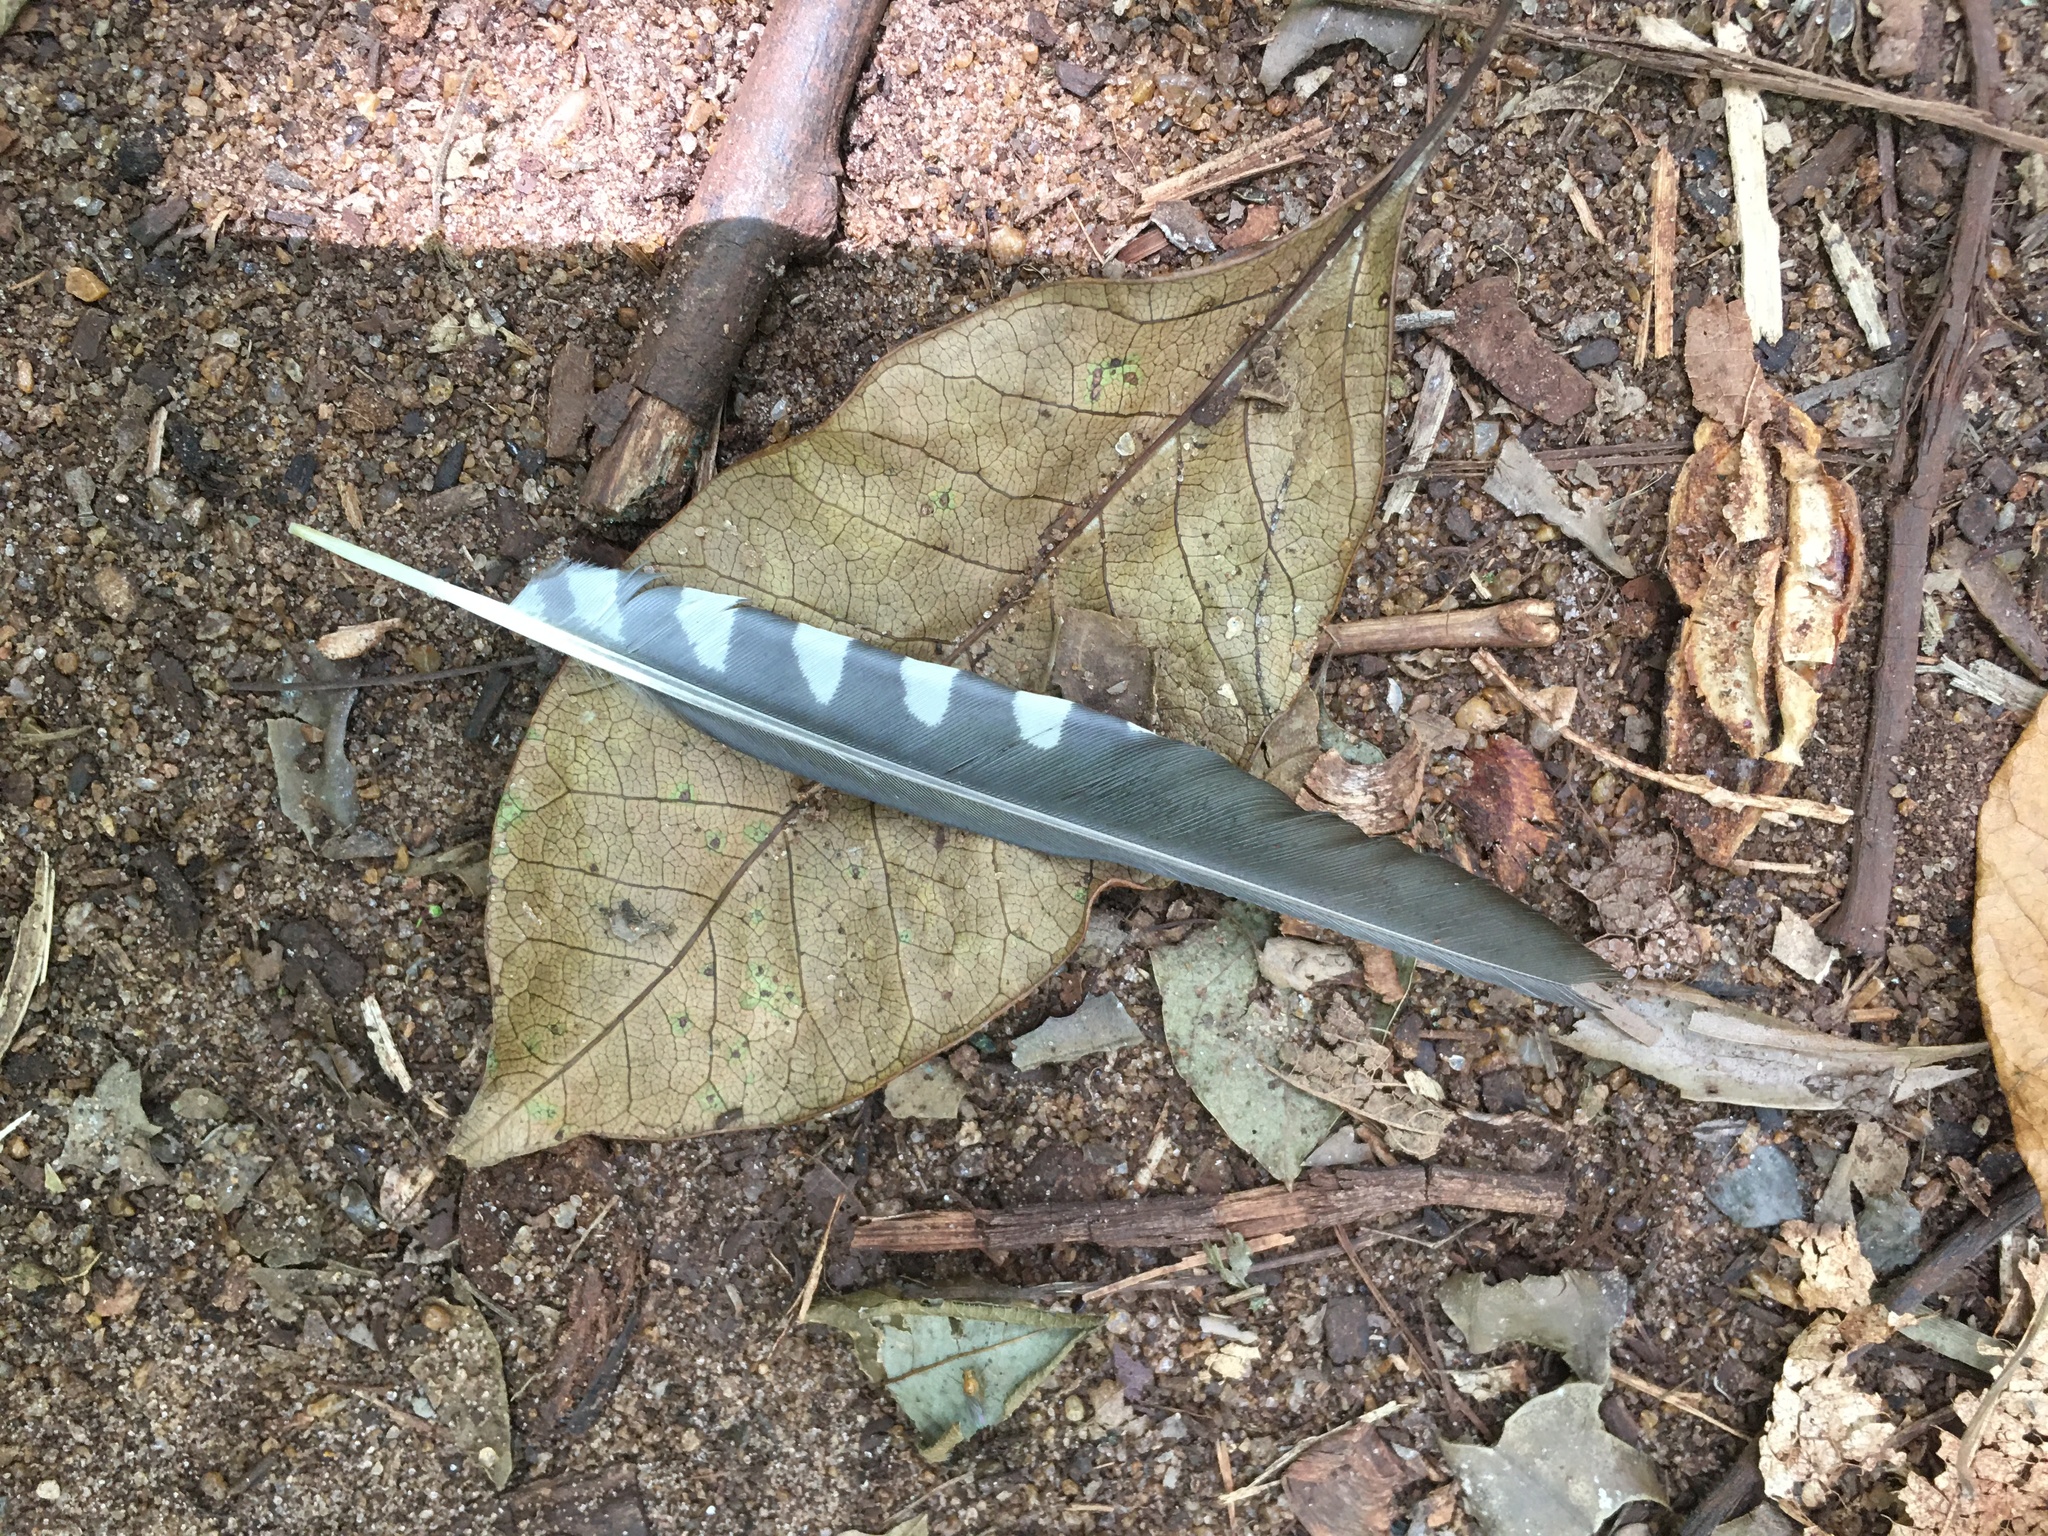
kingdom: Animalia
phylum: Chordata
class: Aves
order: Piciformes
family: Picidae
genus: Melanerpes
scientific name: Melanerpes flavifrons
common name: Yellow-fronted woodpecker
